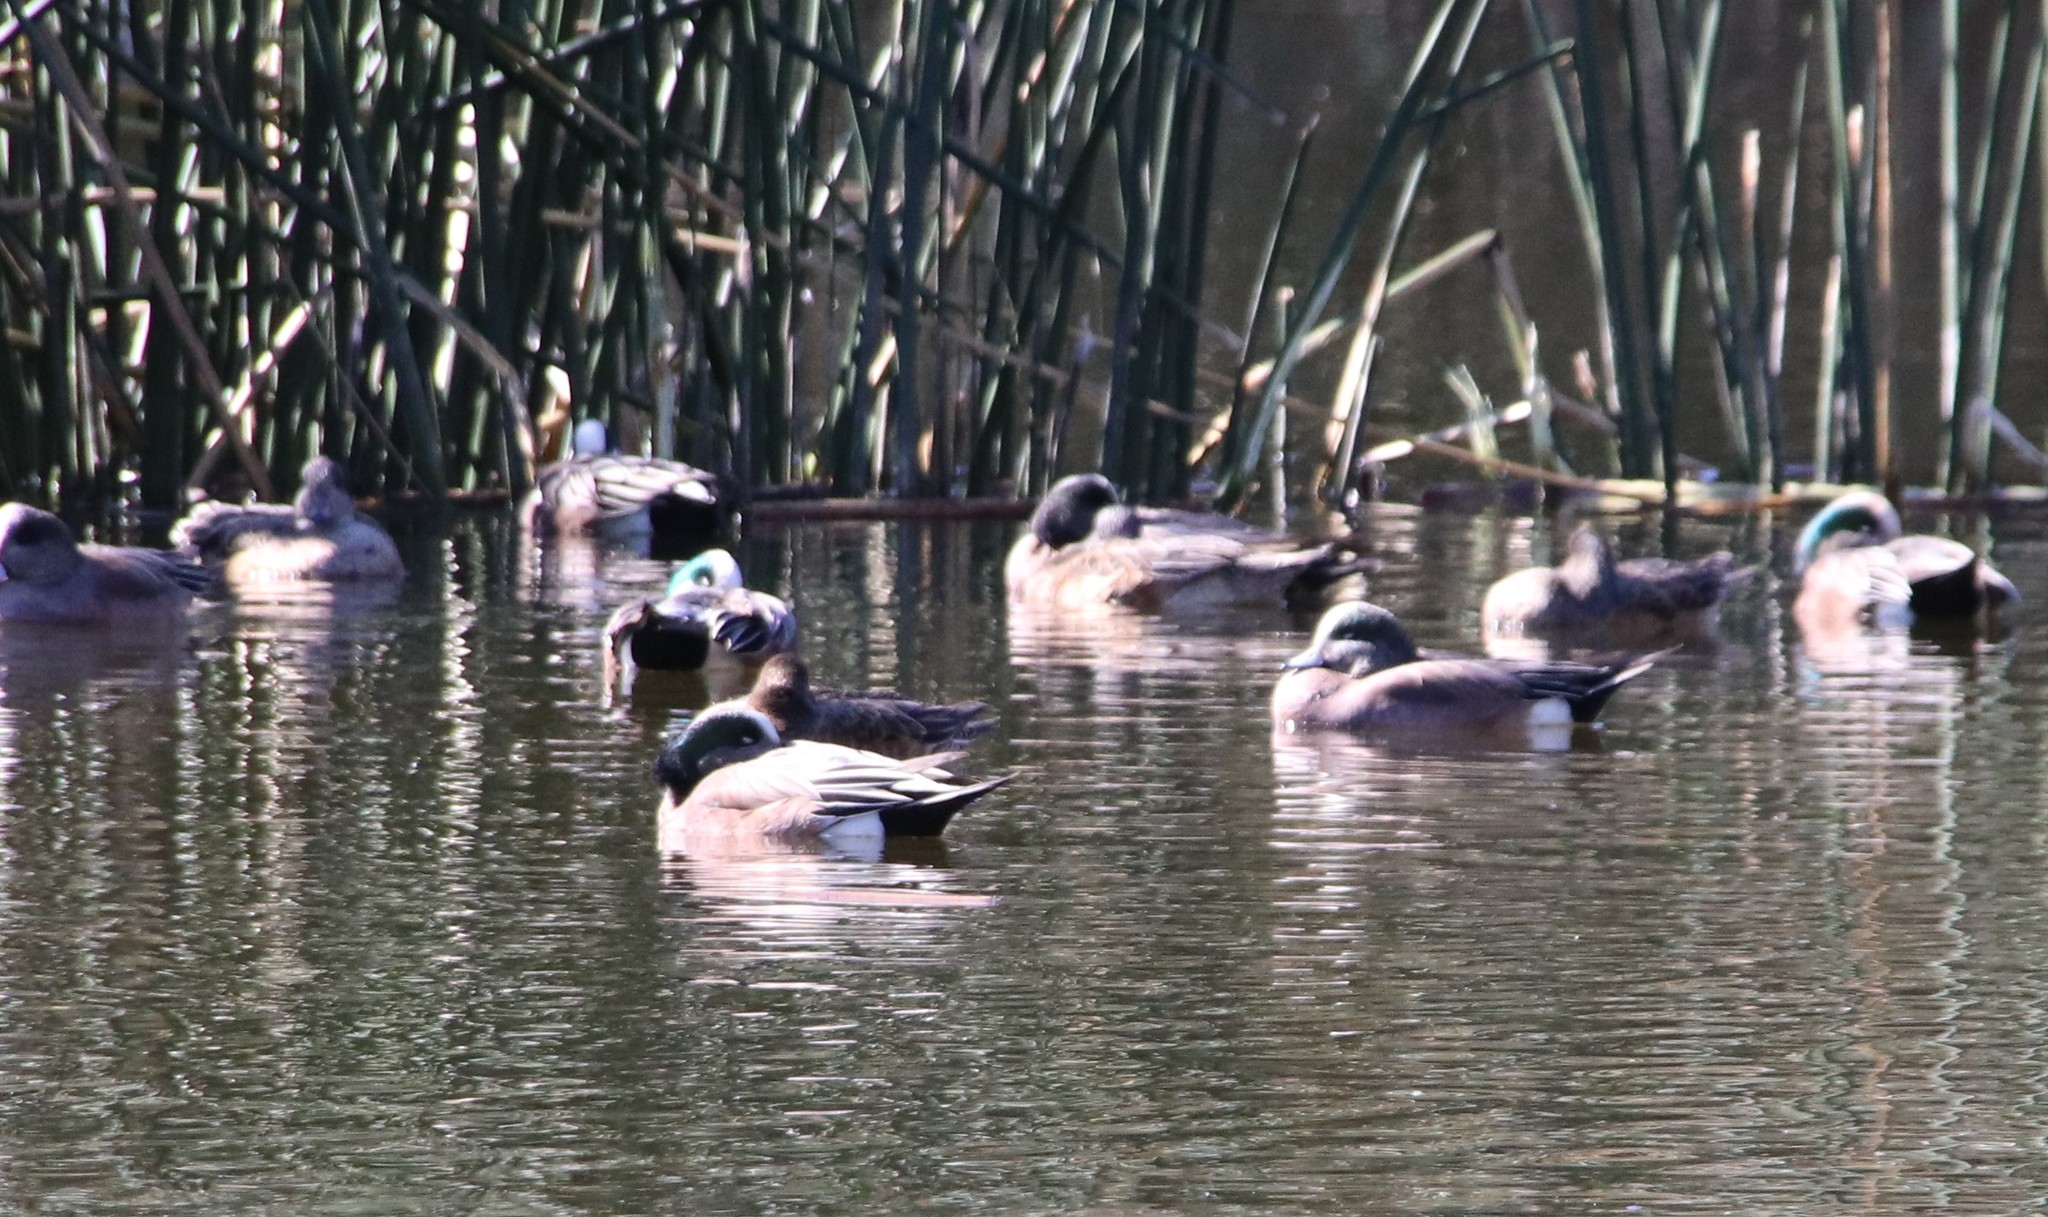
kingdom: Animalia
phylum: Chordata
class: Aves
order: Anseriformes
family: Anatidae
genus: Mareca
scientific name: Mareca americana
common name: American wigeon
